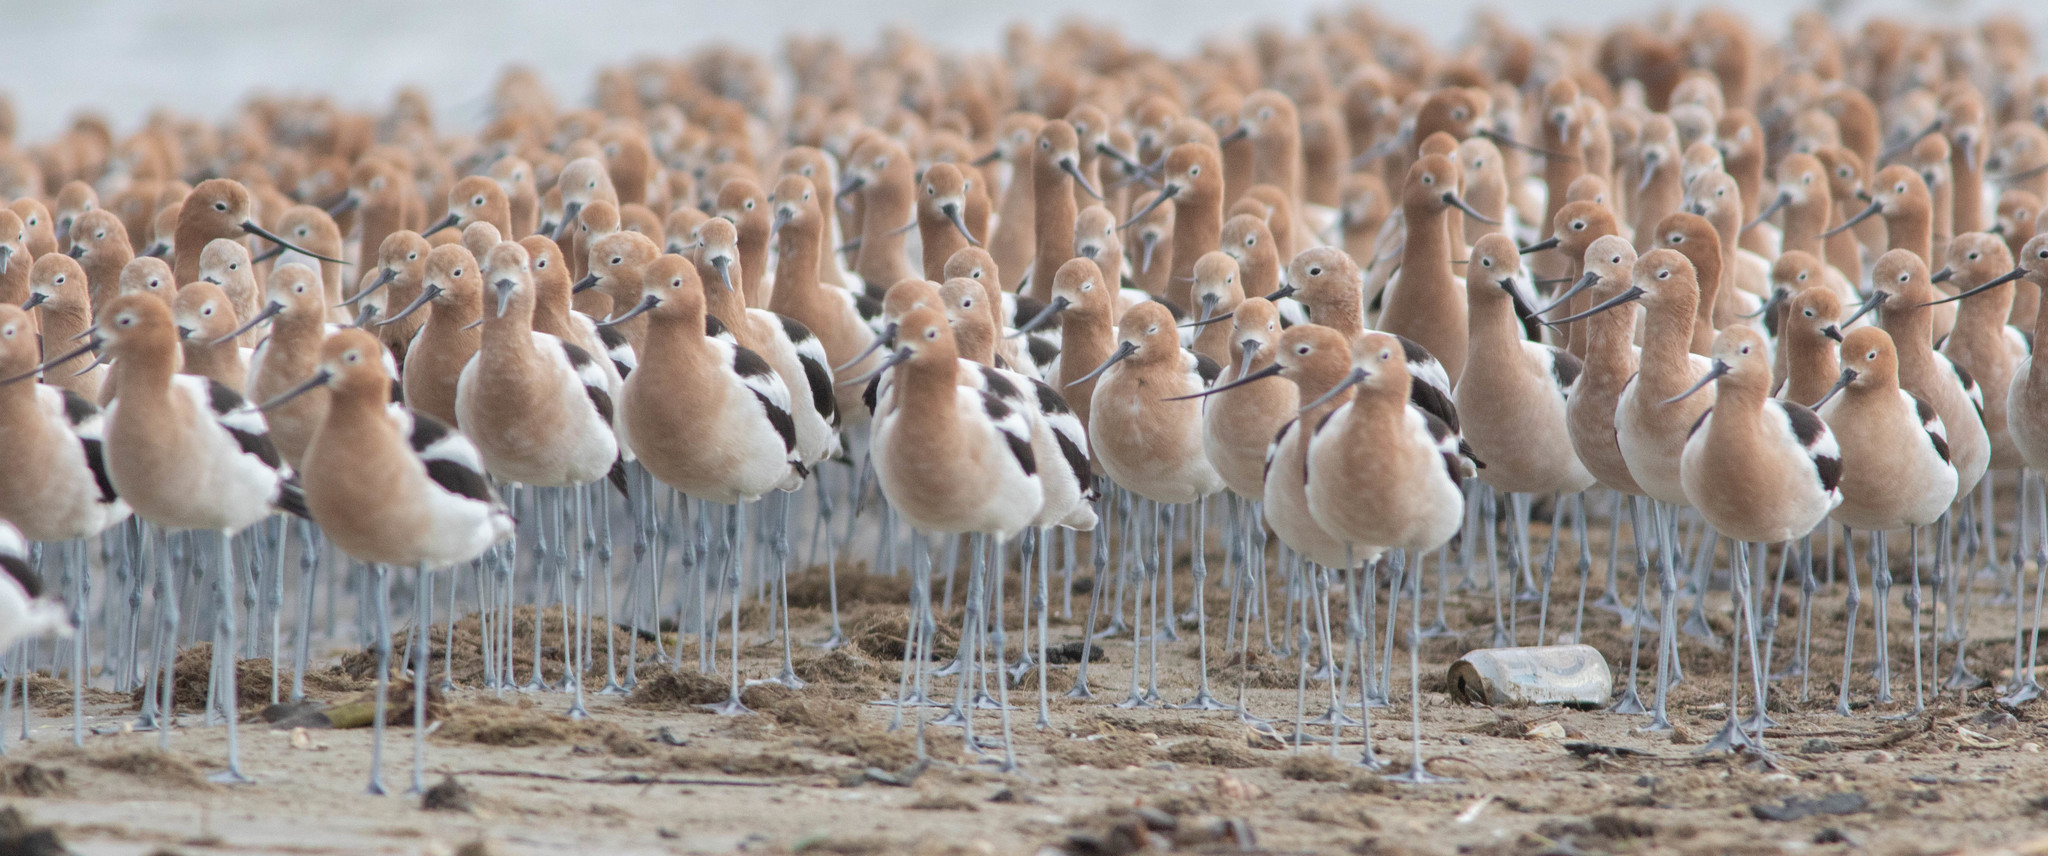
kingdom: Animalia
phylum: Chordata
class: Aves
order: Charadriiformes
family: Recurvirostridae
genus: Recurvirostra
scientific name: Recurvirostra americana
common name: American avocet
